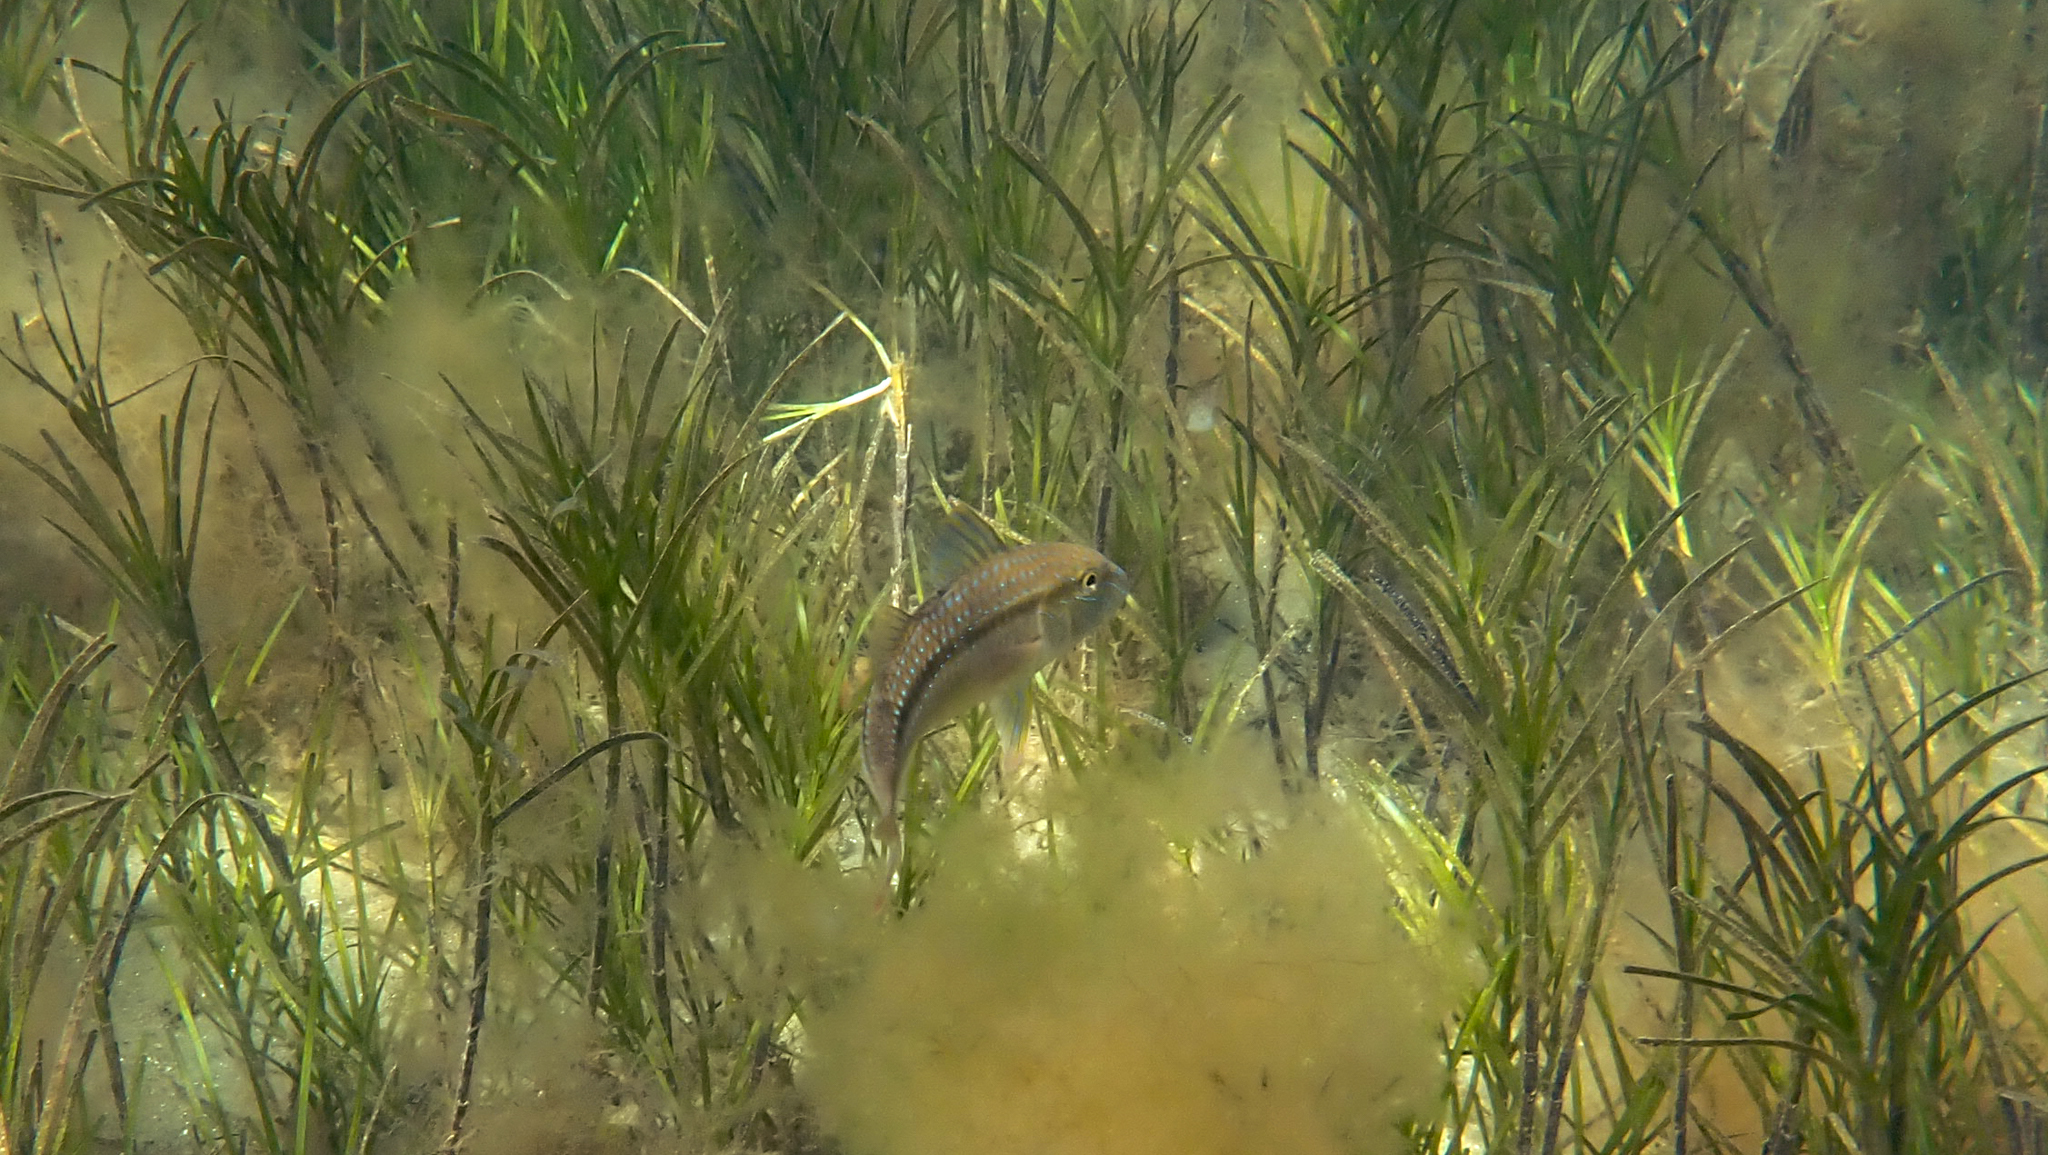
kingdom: Animalia
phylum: Chordata
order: Perciformes
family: Mullidae
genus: Upeneichthys
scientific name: Upeneichthys vlamingii
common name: Red mullet
